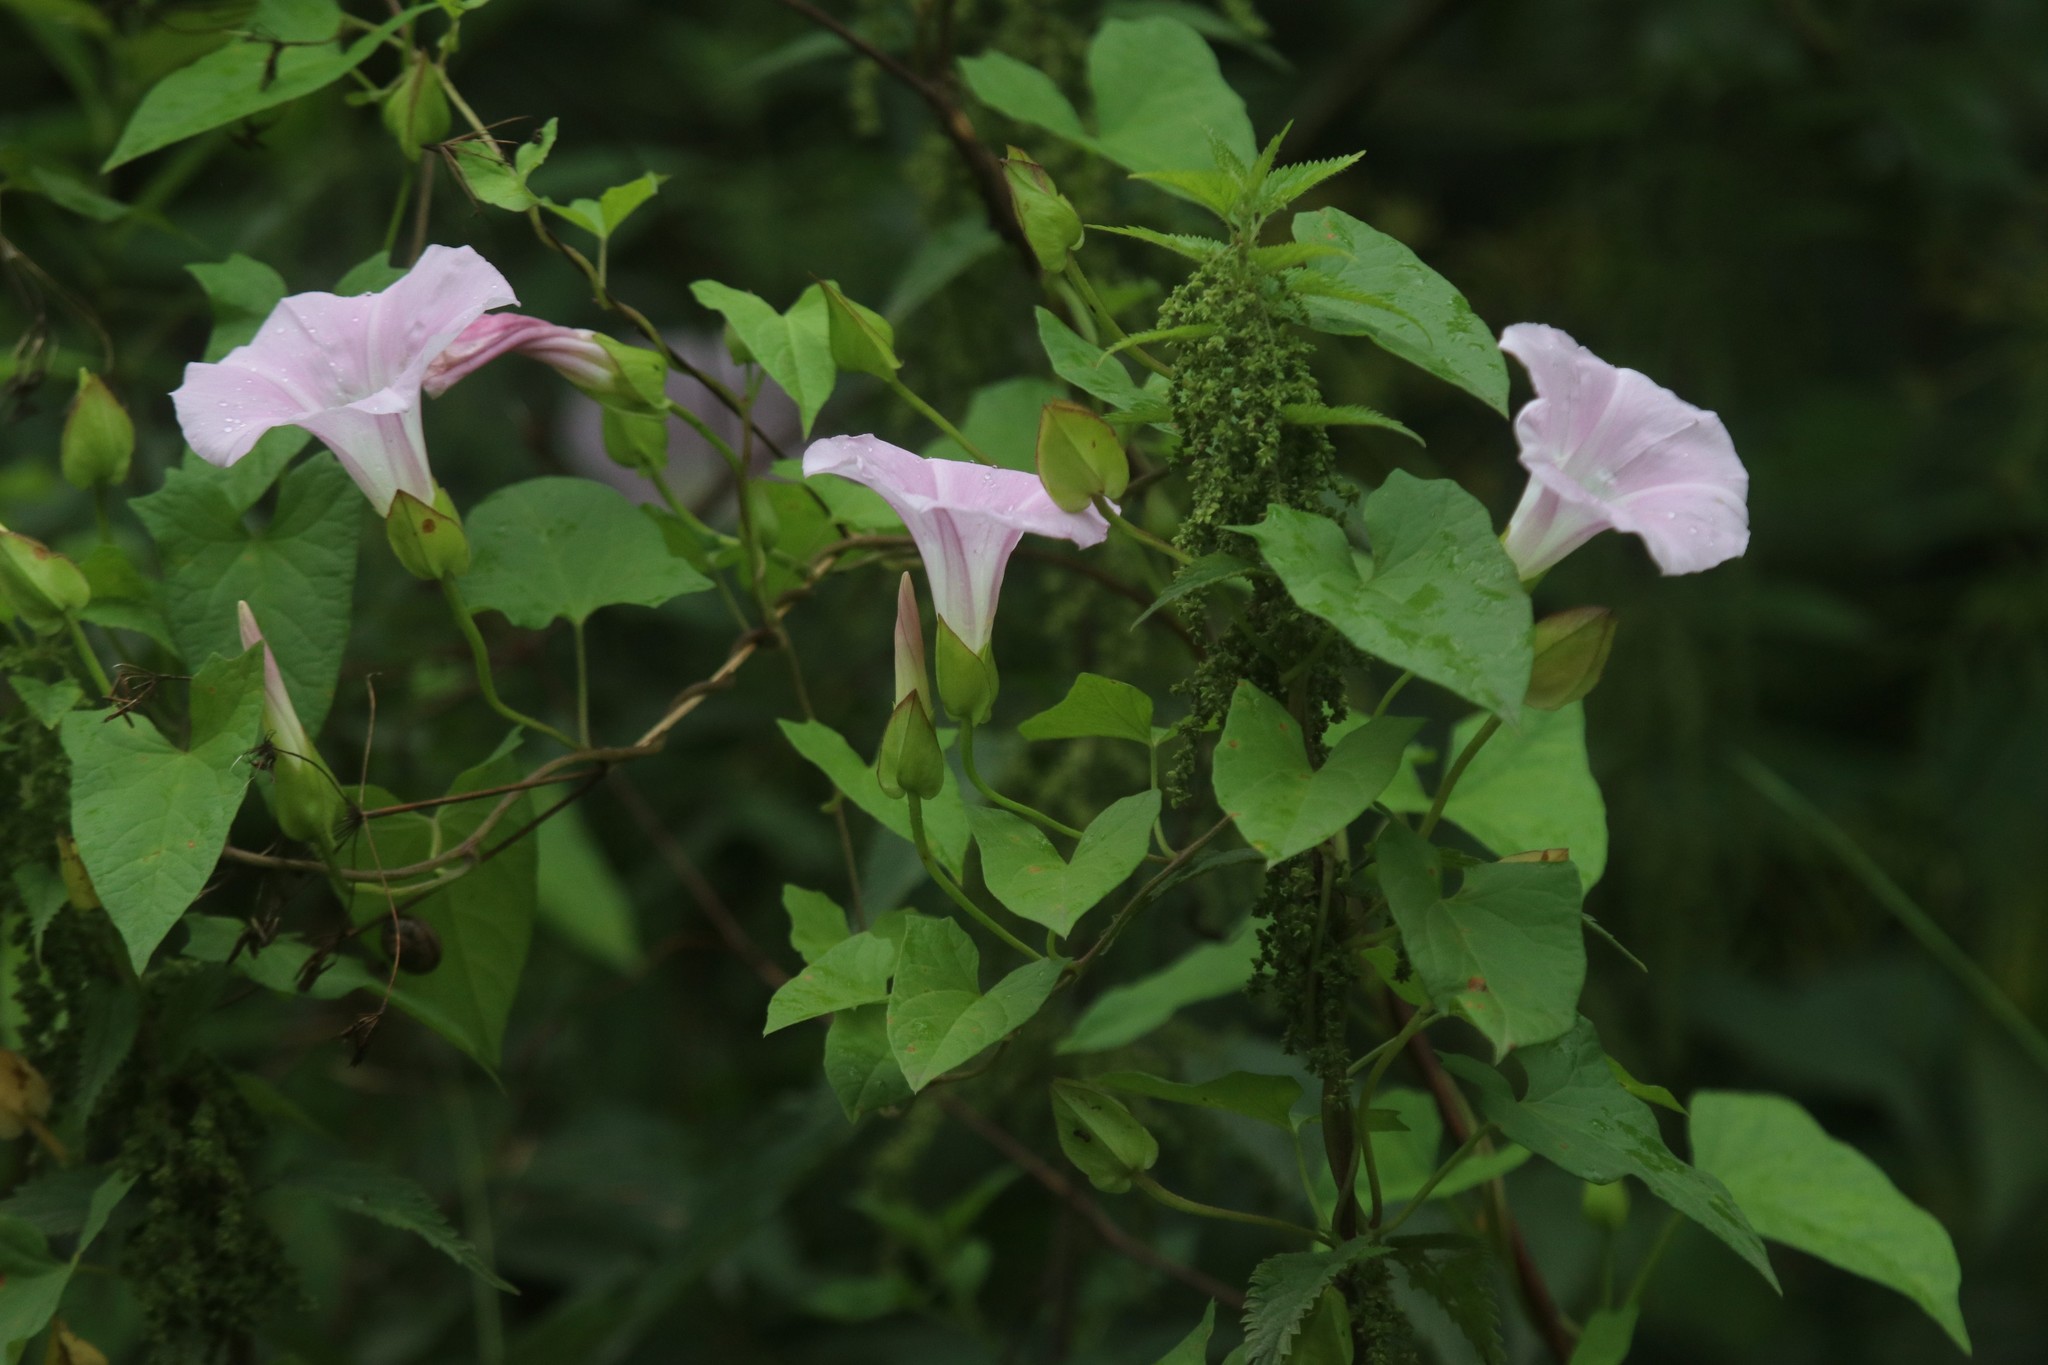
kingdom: Plantae
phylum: Tracheophyta
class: Magnoliopsida
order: Solanales
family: Convolvulaceae
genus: Calystegia
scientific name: Calystegia sepium
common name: Hedge bindweed
